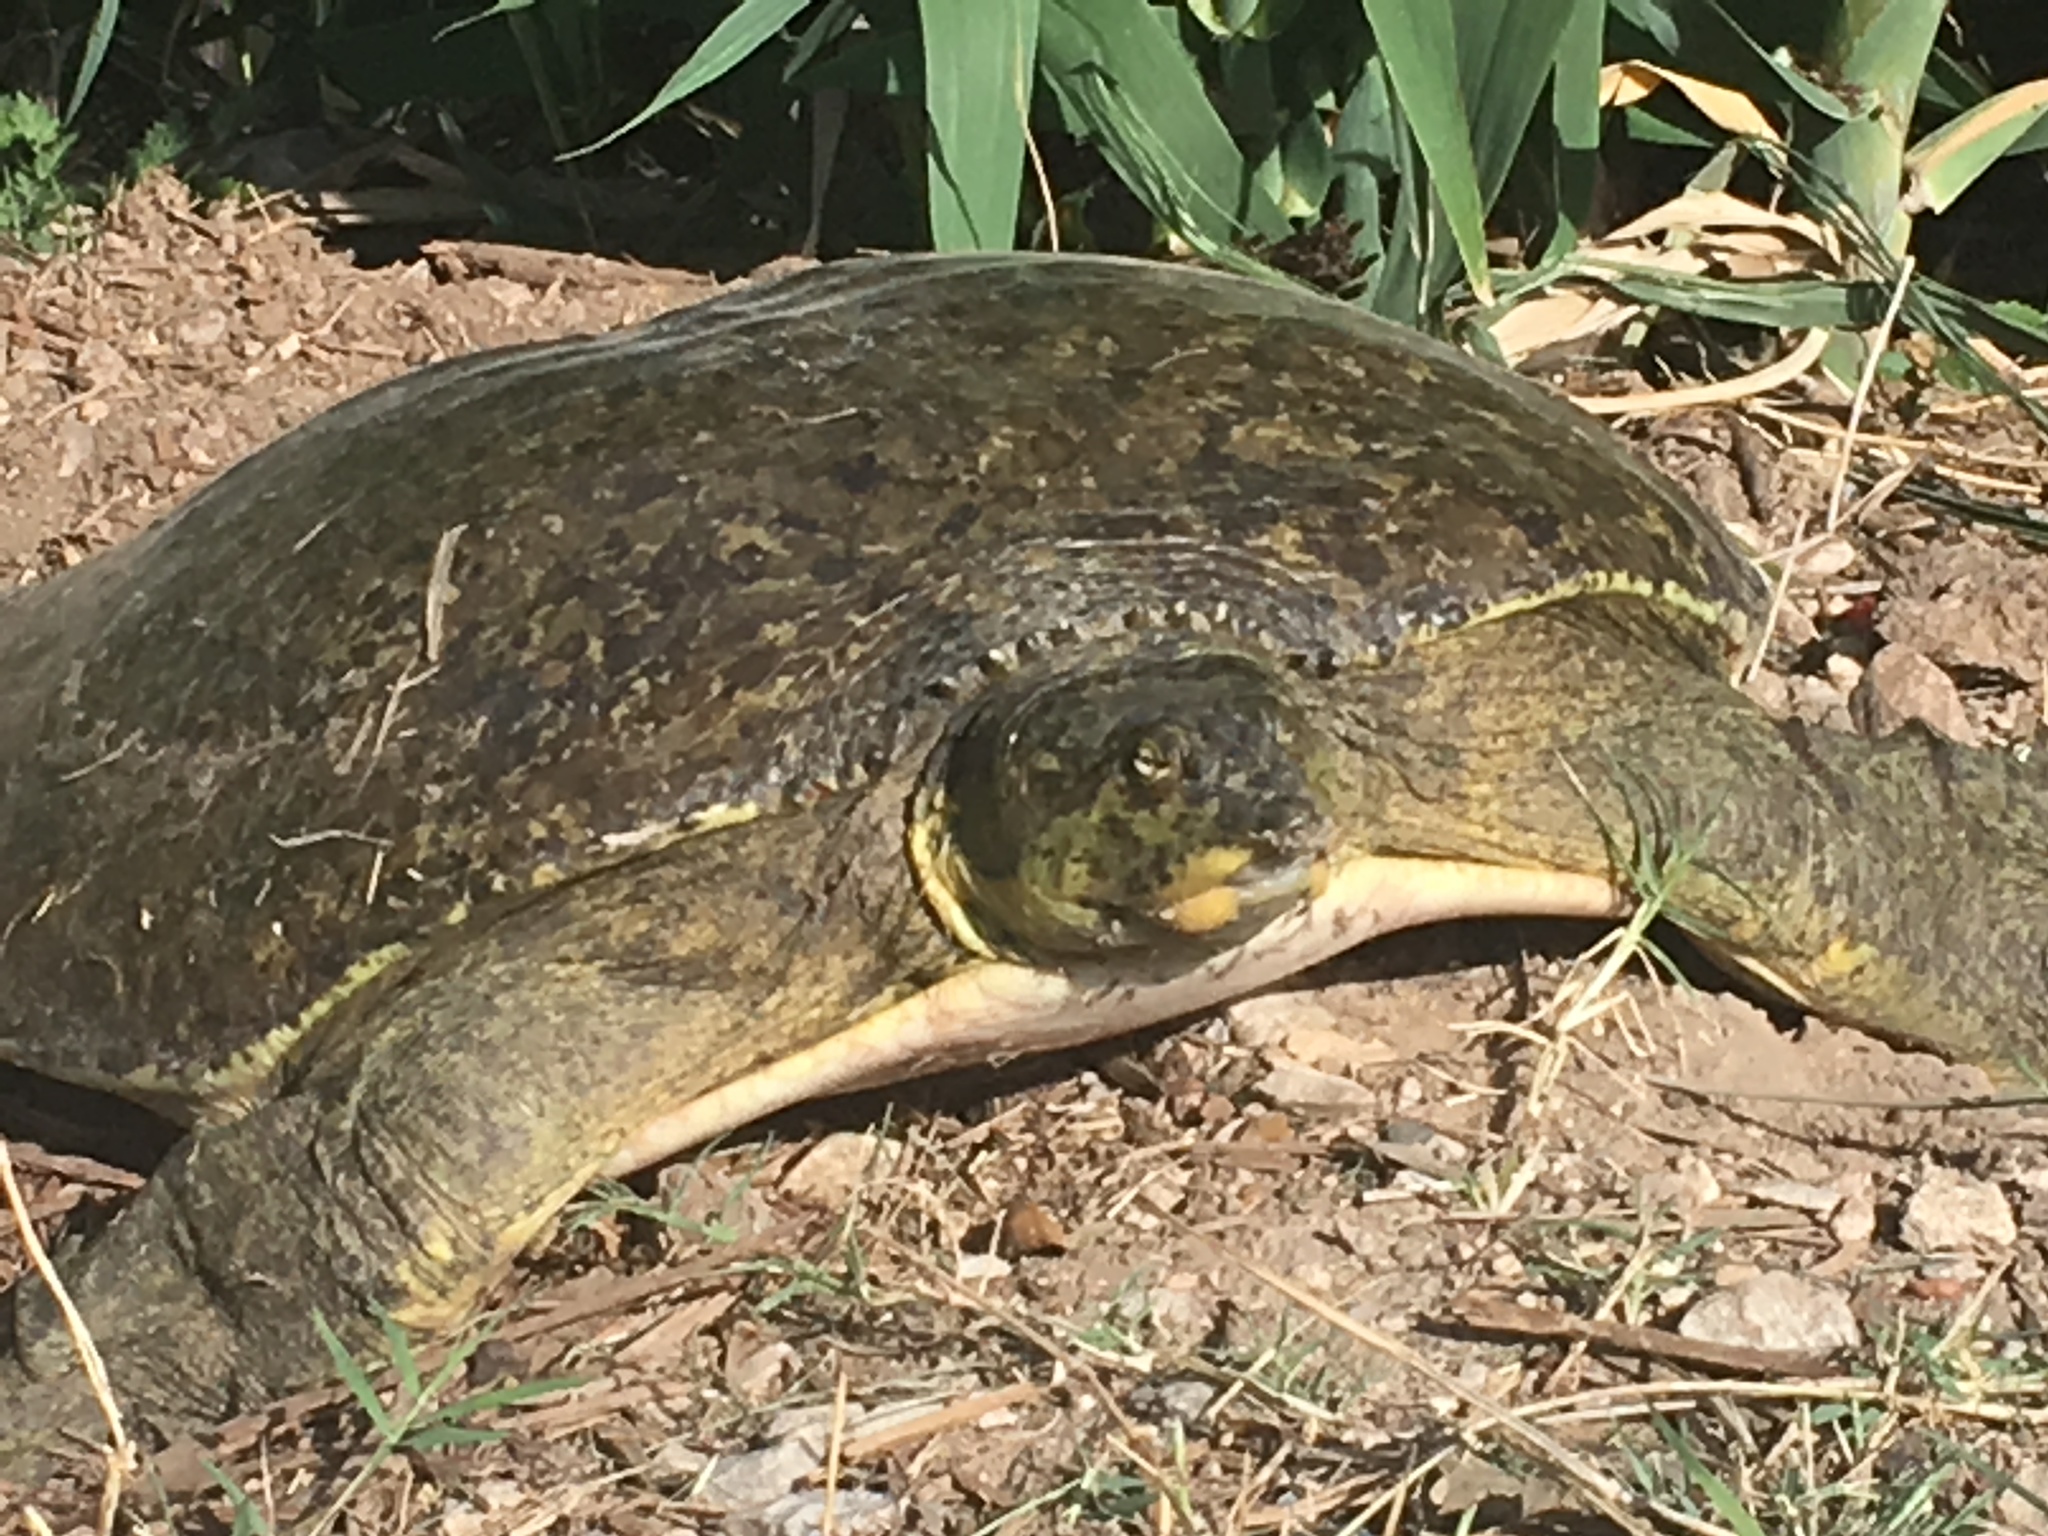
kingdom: Animalia
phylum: Chordata
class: Testudines
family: Trionychidae
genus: Apalone
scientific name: Apalone spinifera
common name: Spiny softshell turtle
